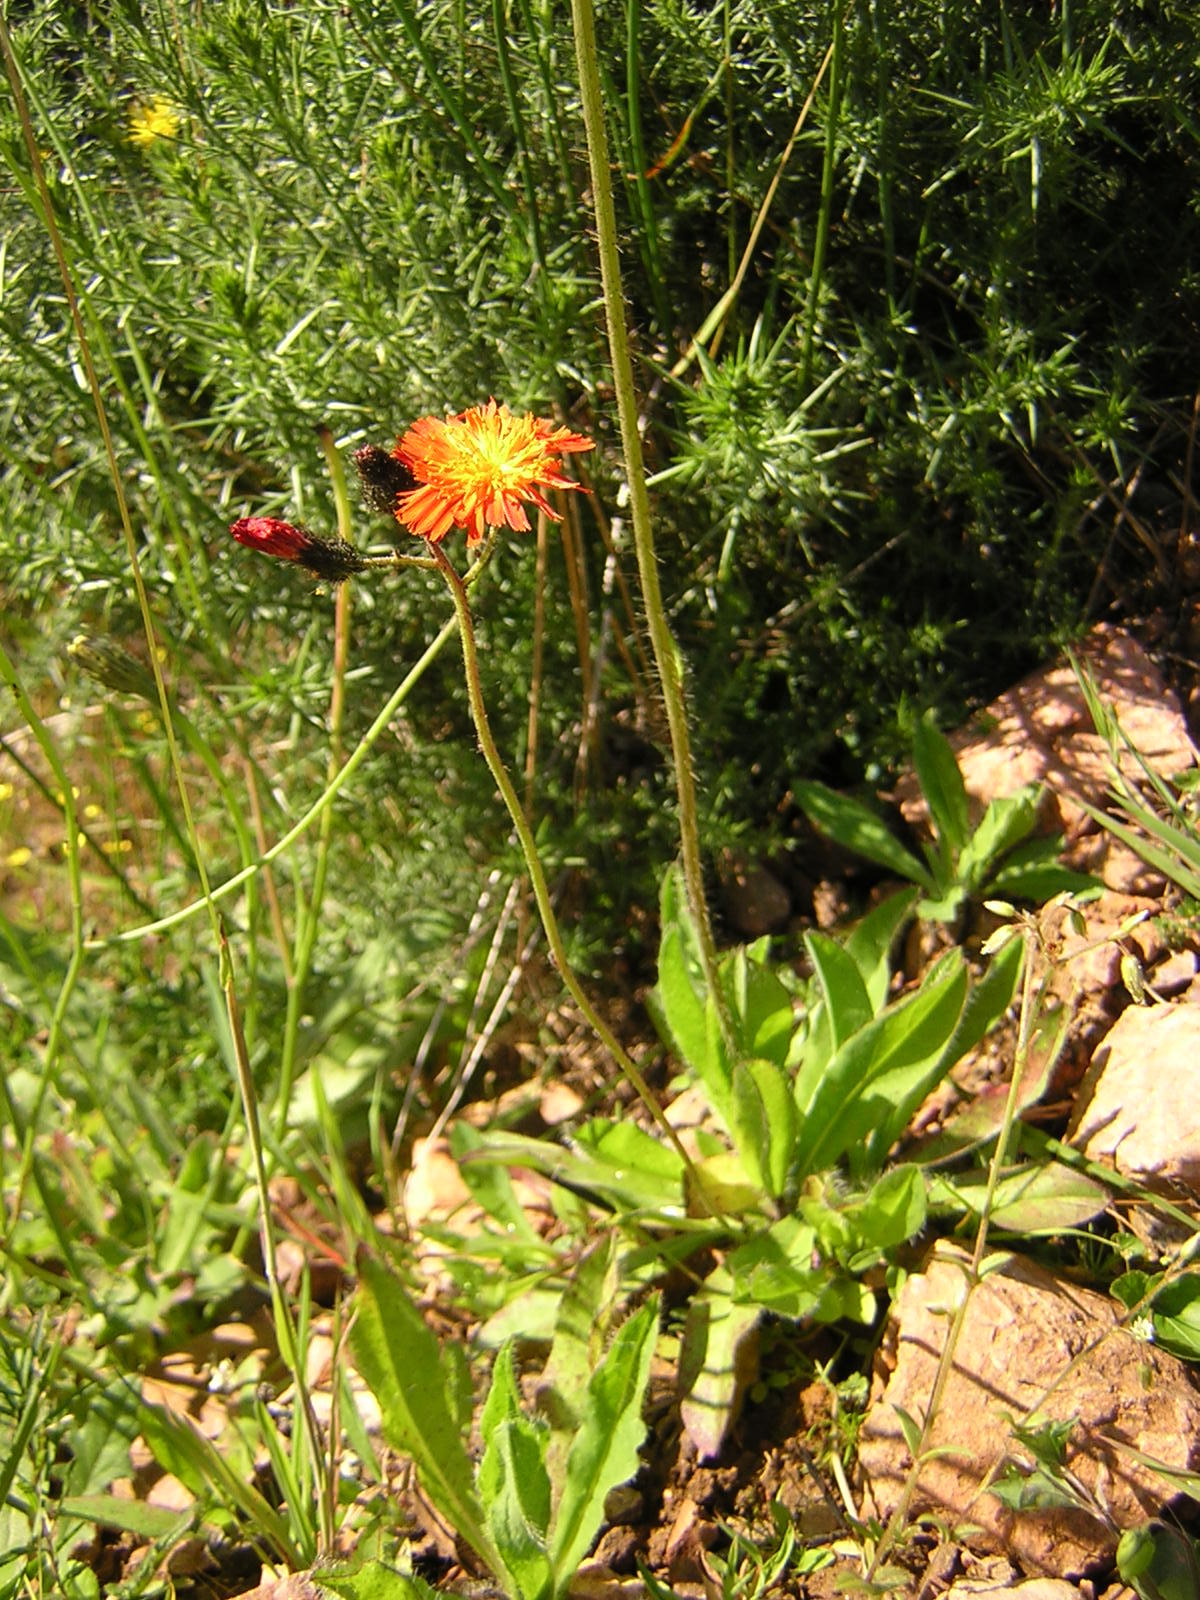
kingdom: Plantae
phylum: Tracheophyta
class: Magnoliopsida
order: Asterales
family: Asteraceae
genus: Pilosella
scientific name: Pilosella aurantiaca
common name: Fox-and-cubs
